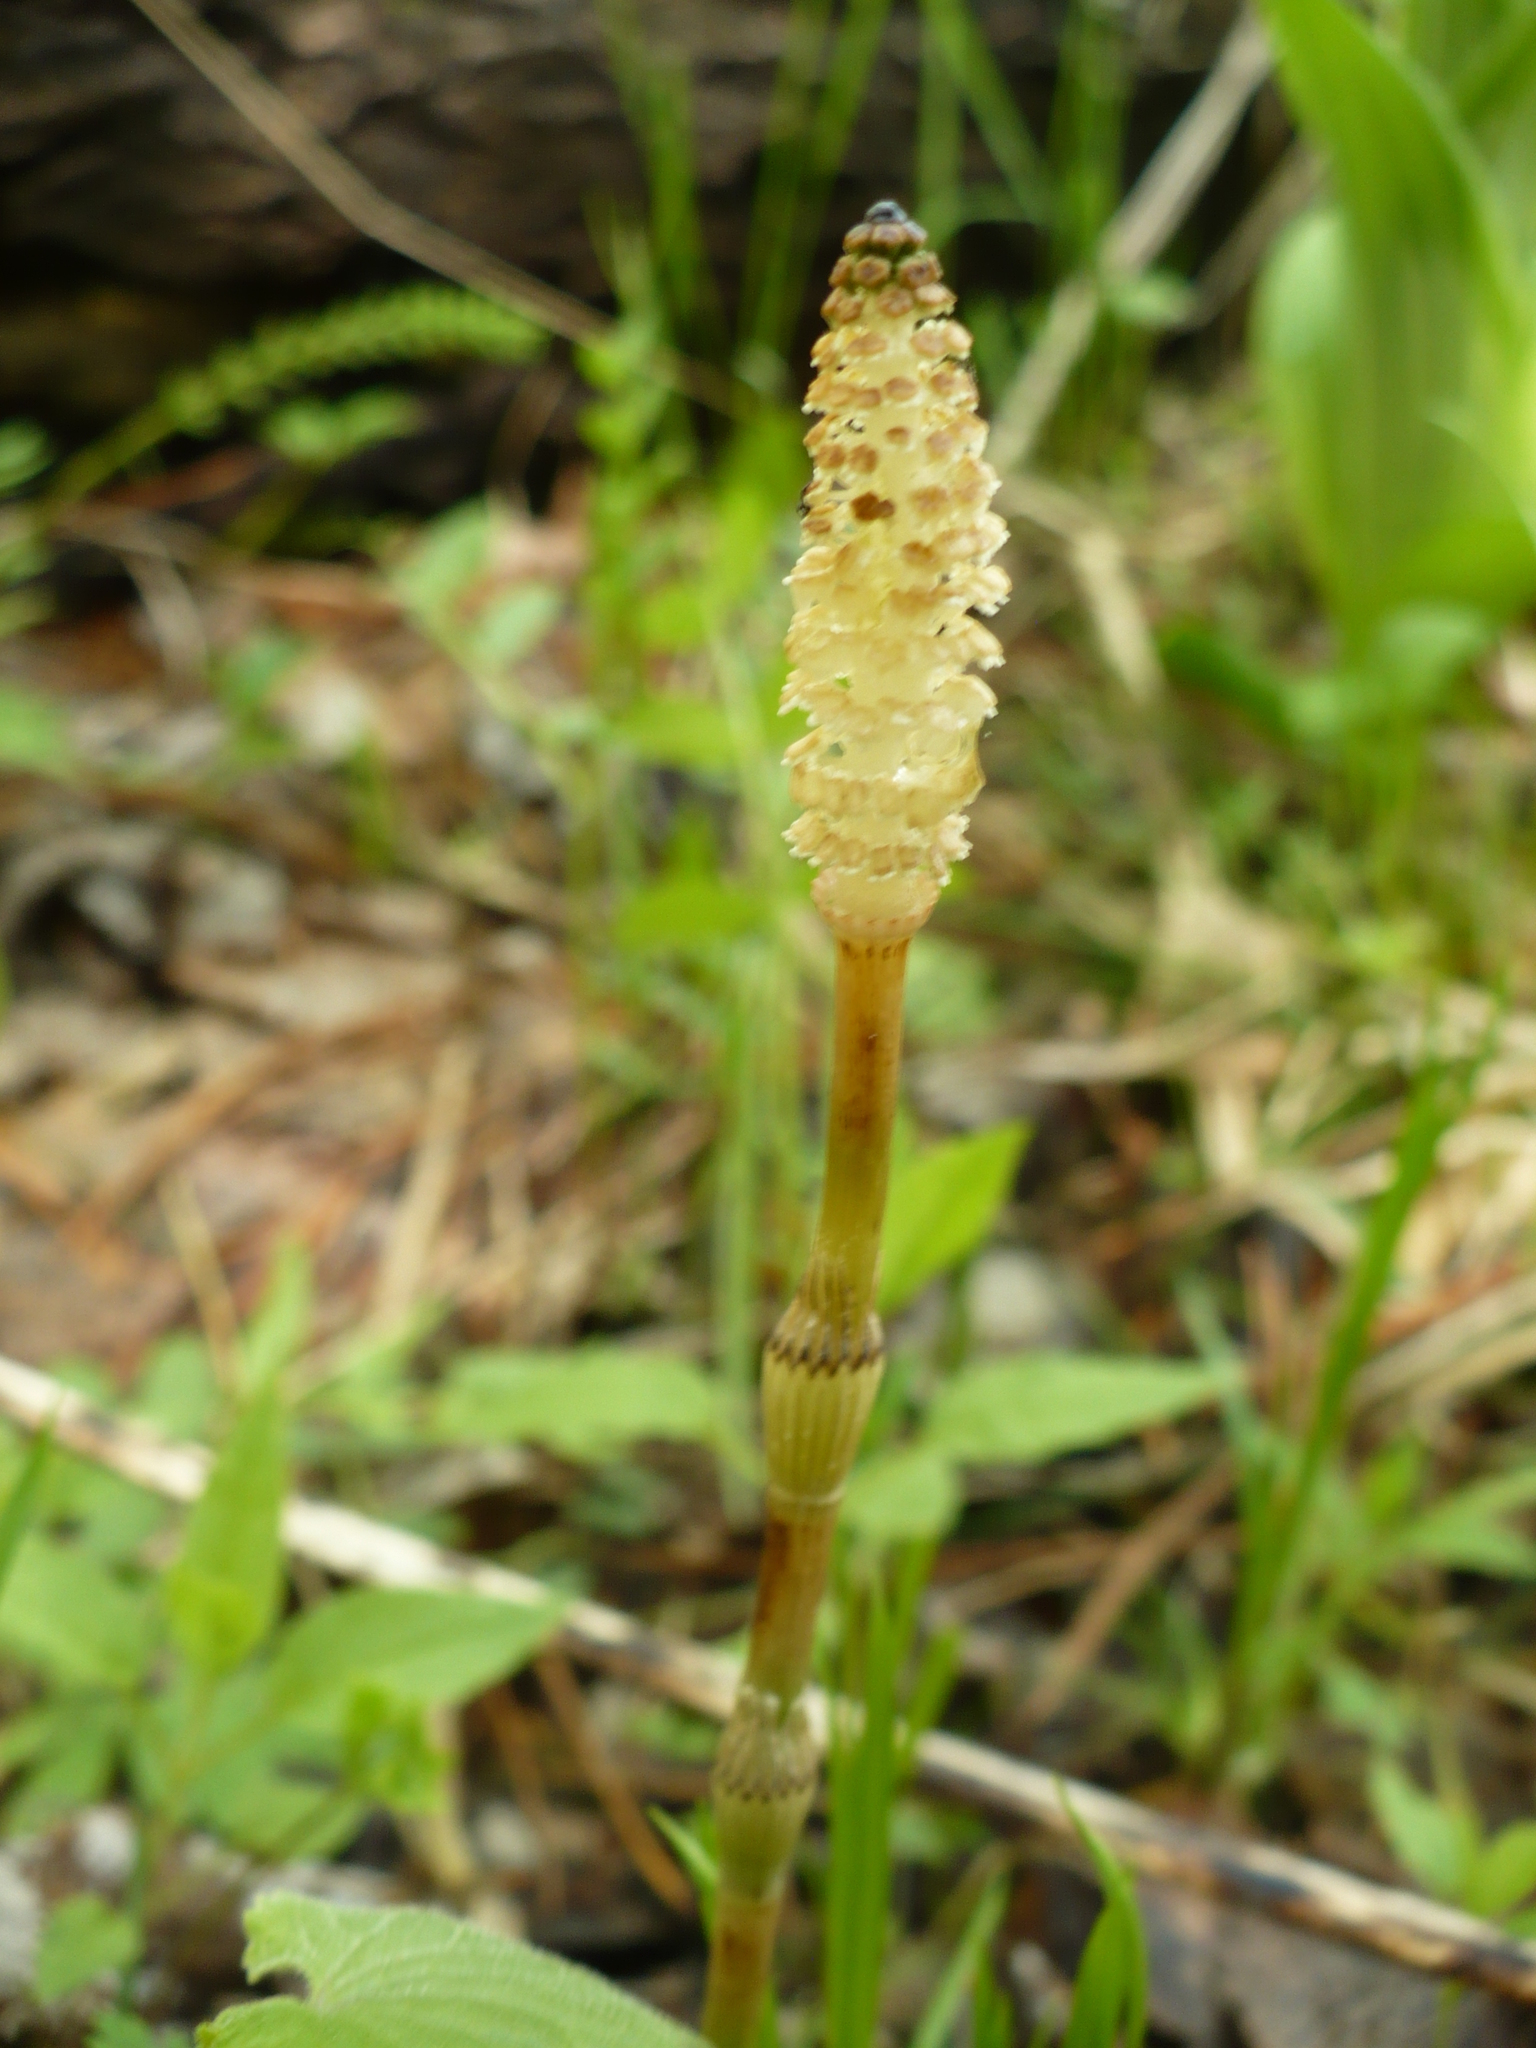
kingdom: Plantae
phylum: Tracheophyta
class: Polypodiopsida
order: Equisetales
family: Equisetaceae
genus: Equisetum
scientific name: Equisetum pratense
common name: Meadow horsetail
